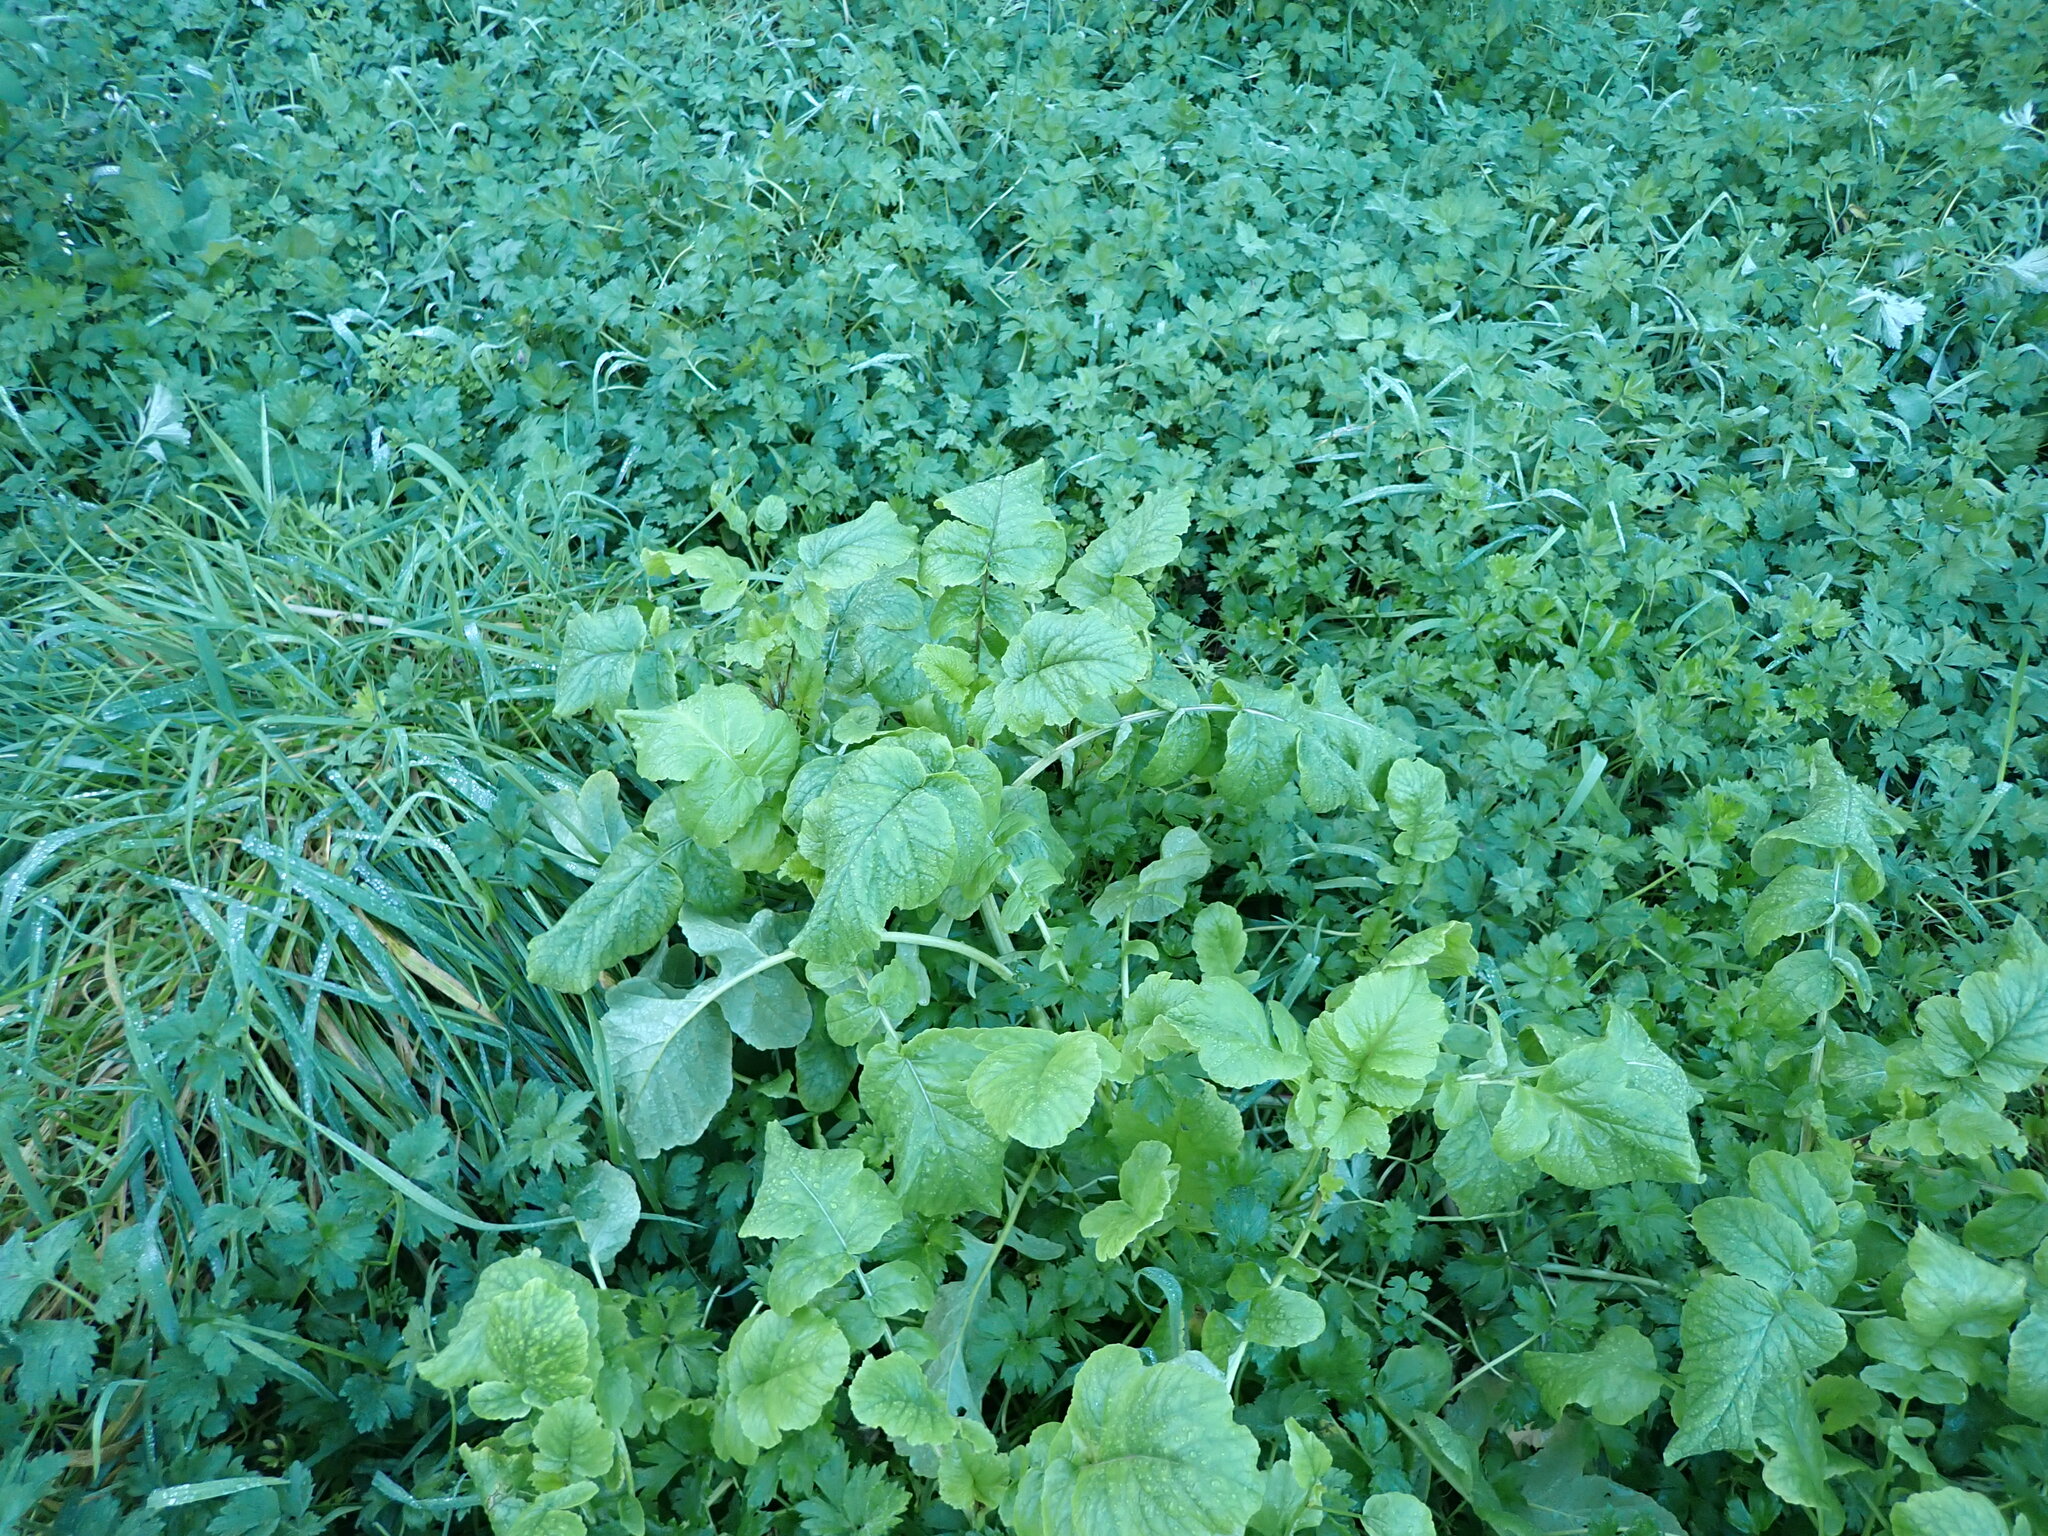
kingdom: Plantae
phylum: Tracheophyta
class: Magnoliopsida
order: Brassicales
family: Brassicaceae
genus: Raphanus
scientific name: Raphanus raphanistrum
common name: Wild radish
